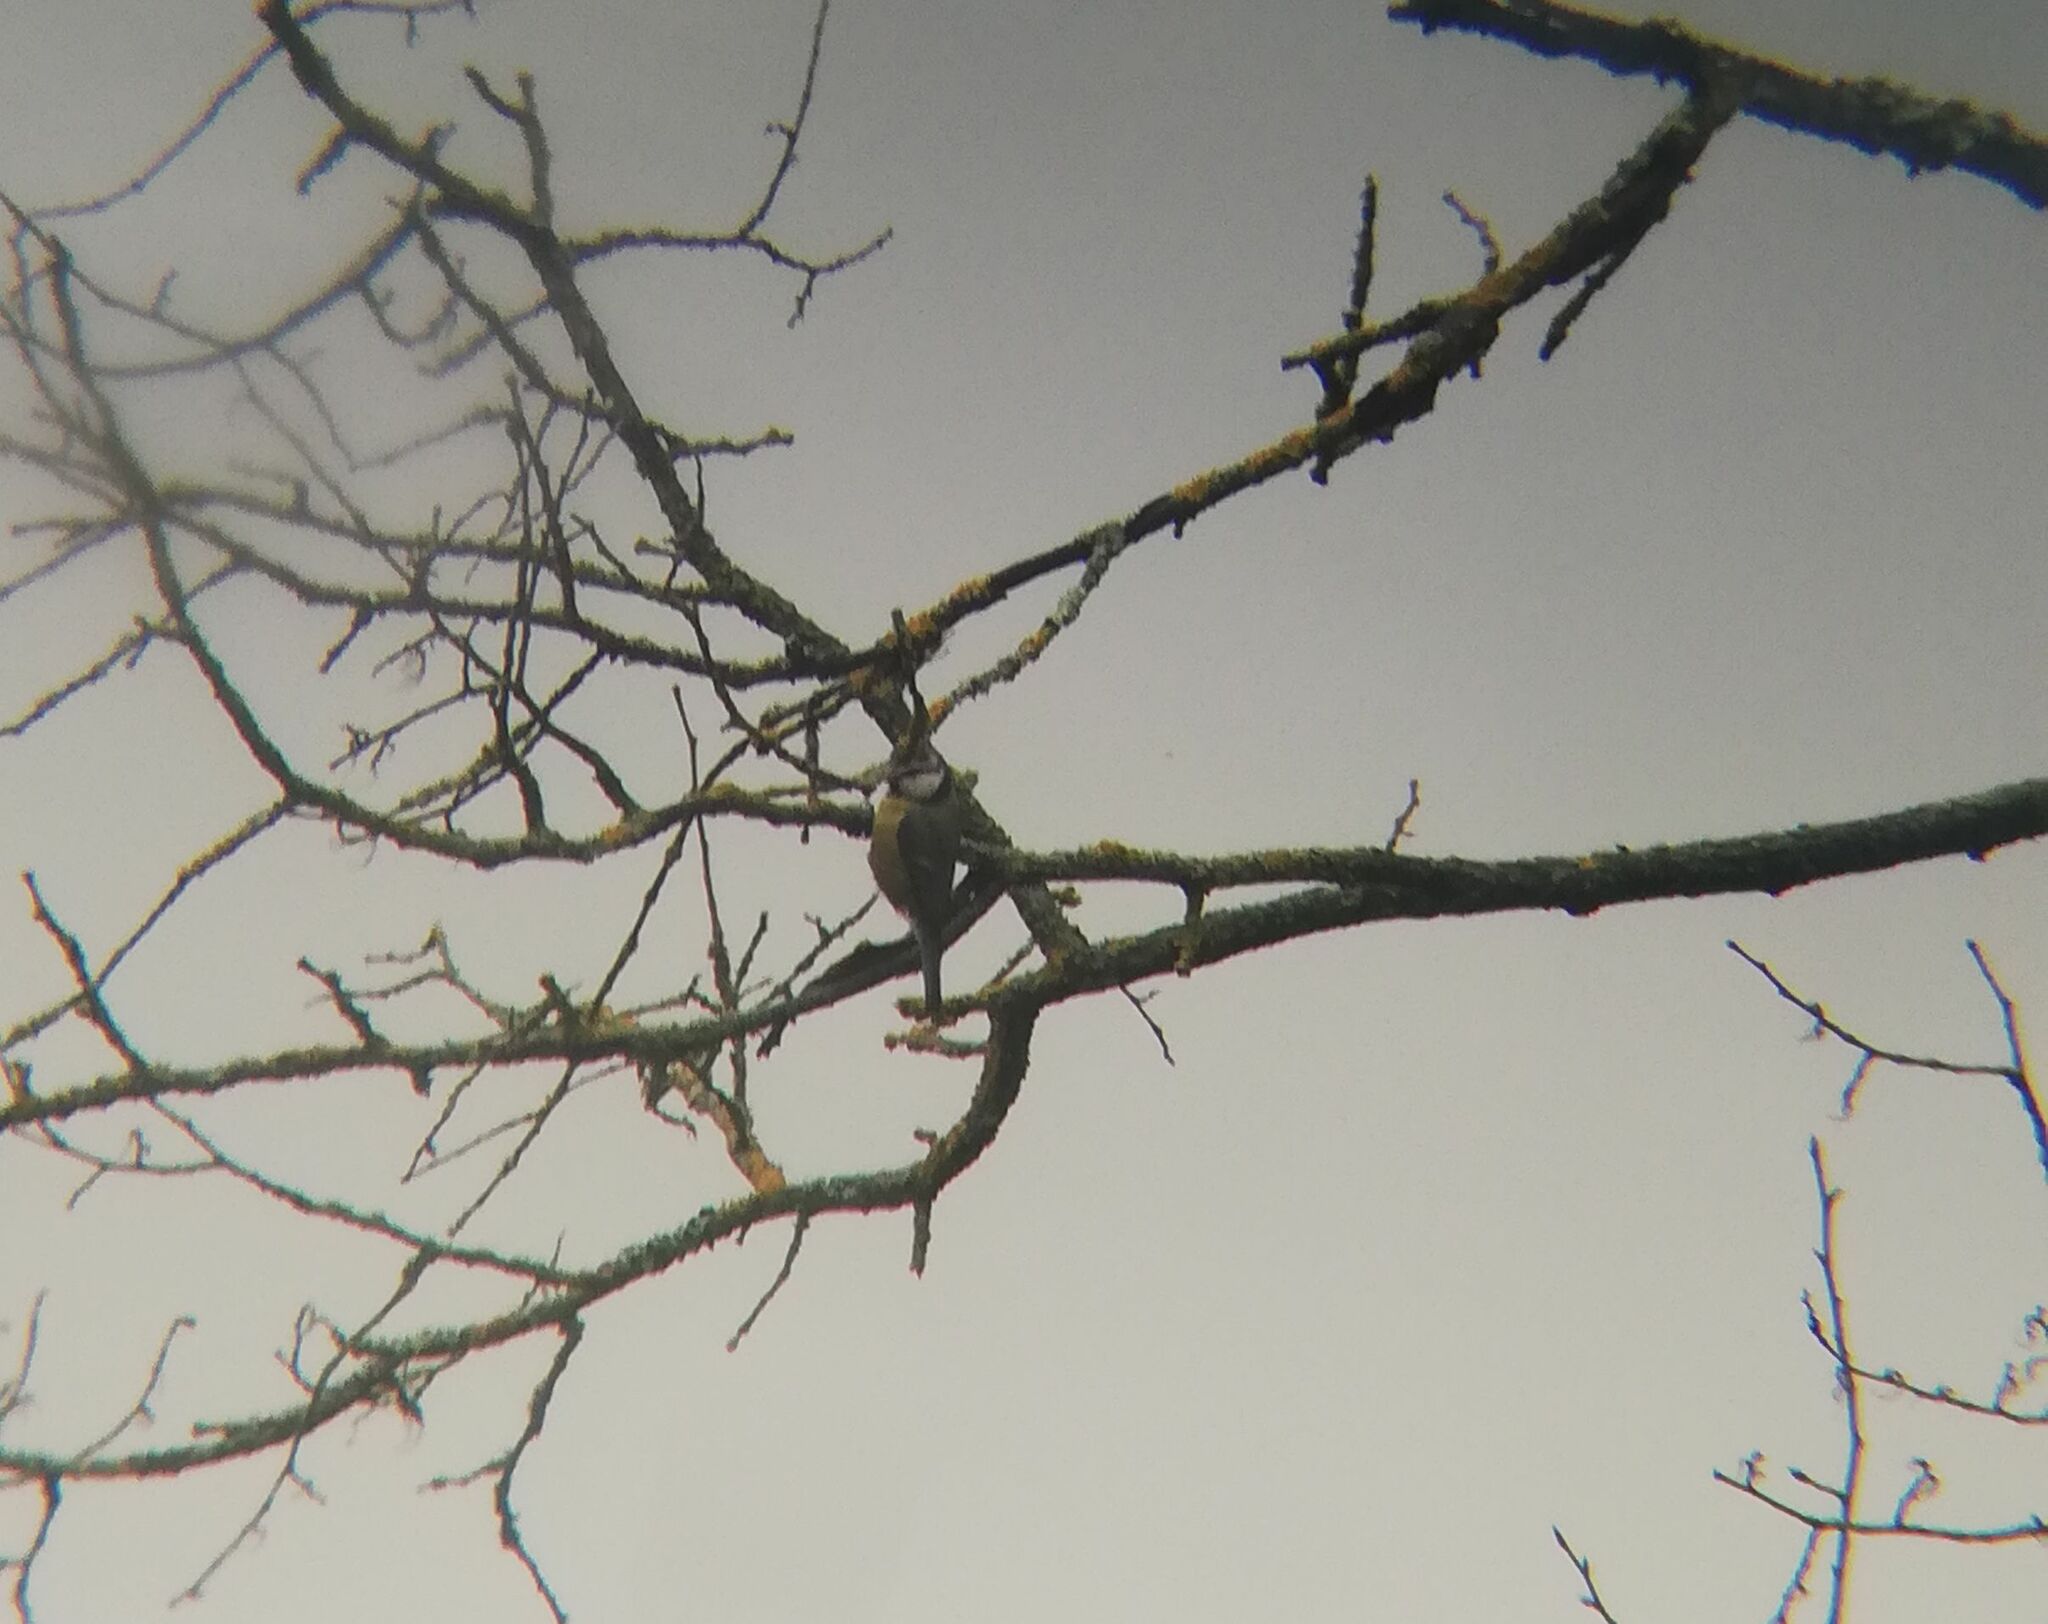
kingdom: Animalia
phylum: Chordata
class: Aves
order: Passeriformes
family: Paridae
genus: Cyanistes
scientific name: Cyanistes caeruleus
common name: Eurasian blue tit
